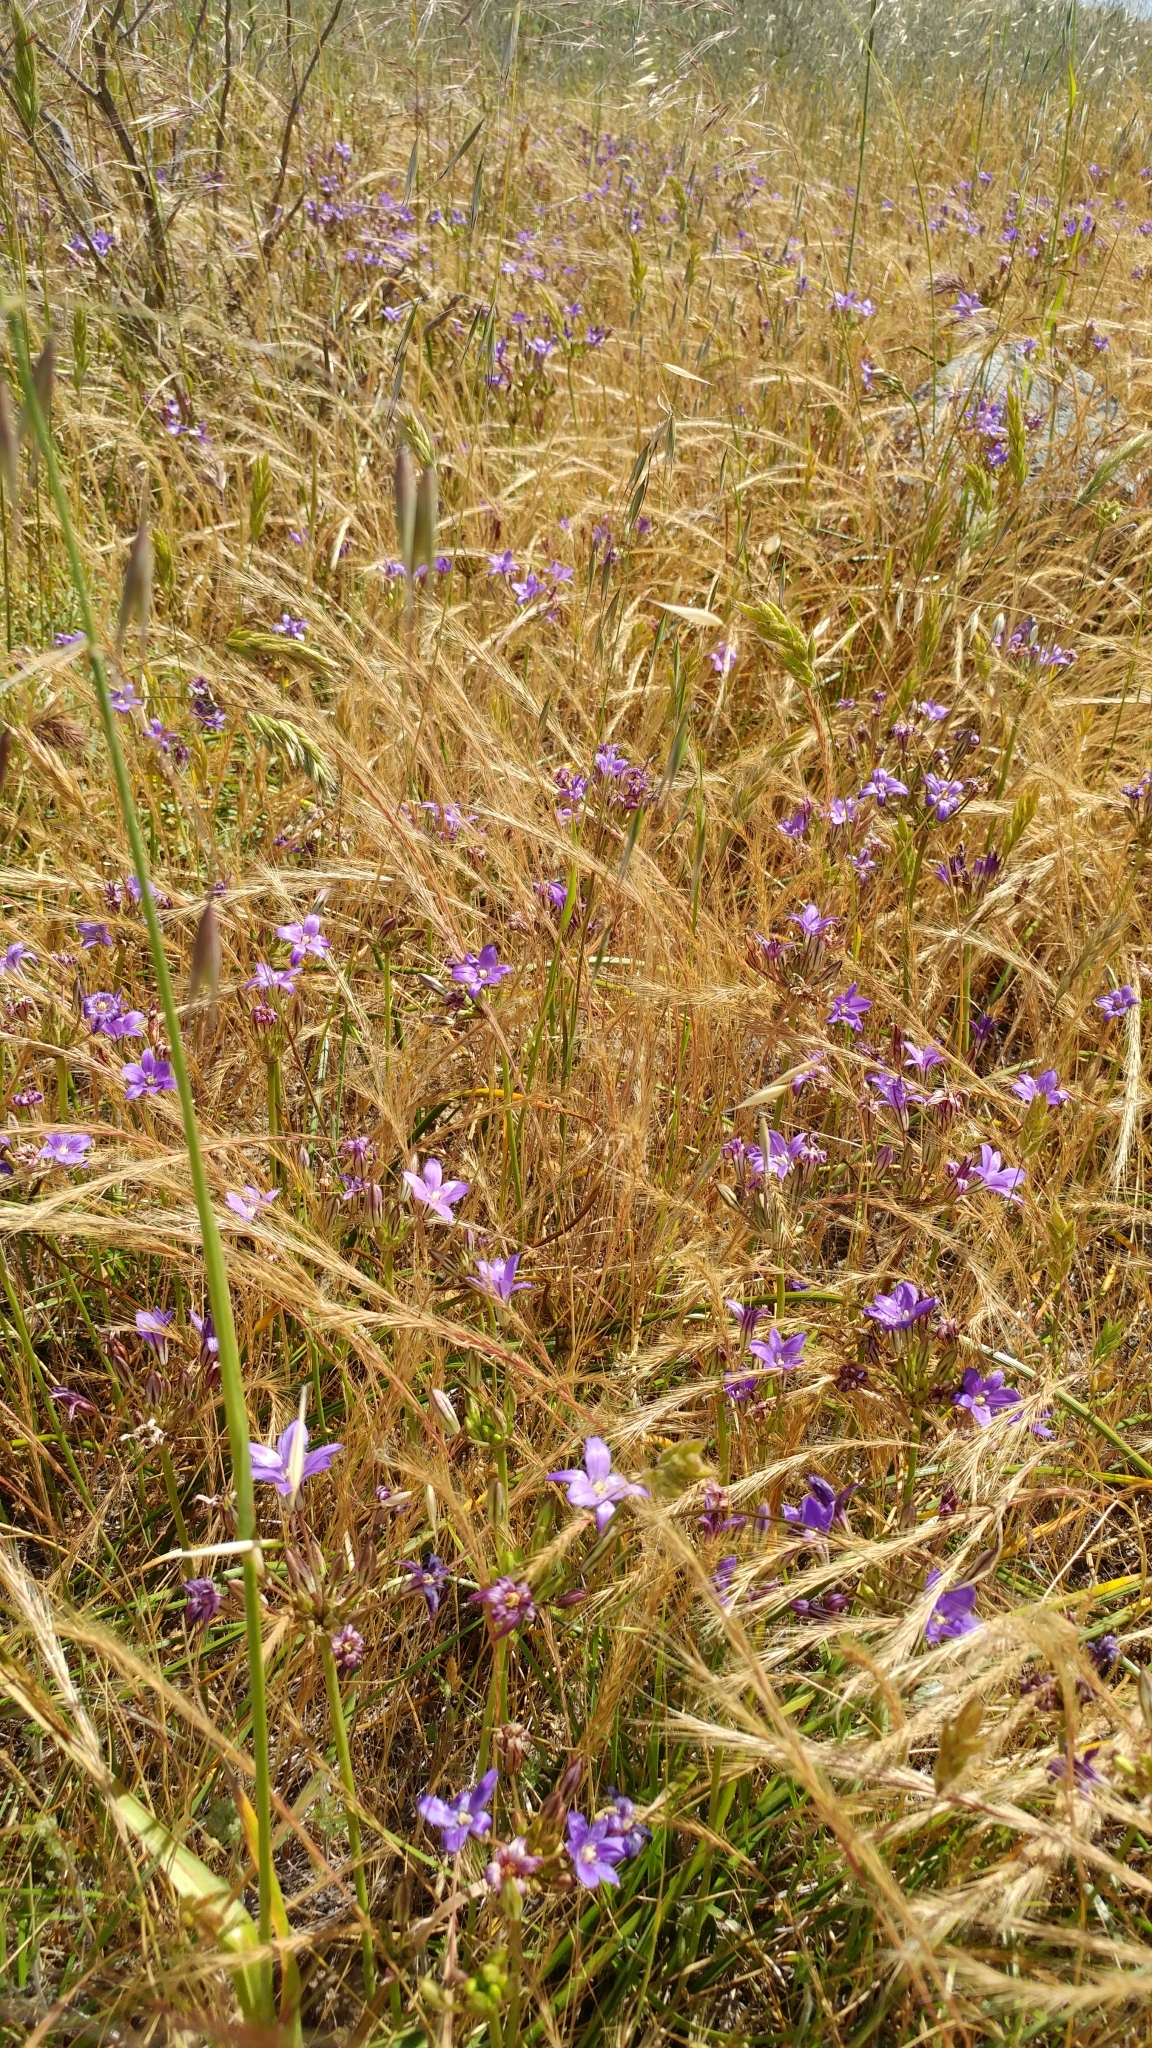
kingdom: Plantae
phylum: Tracheophyta
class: Liliopsida
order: Asparagales
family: Asparagaceae
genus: Brodiaea
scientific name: Brodiaea kinkiensis
